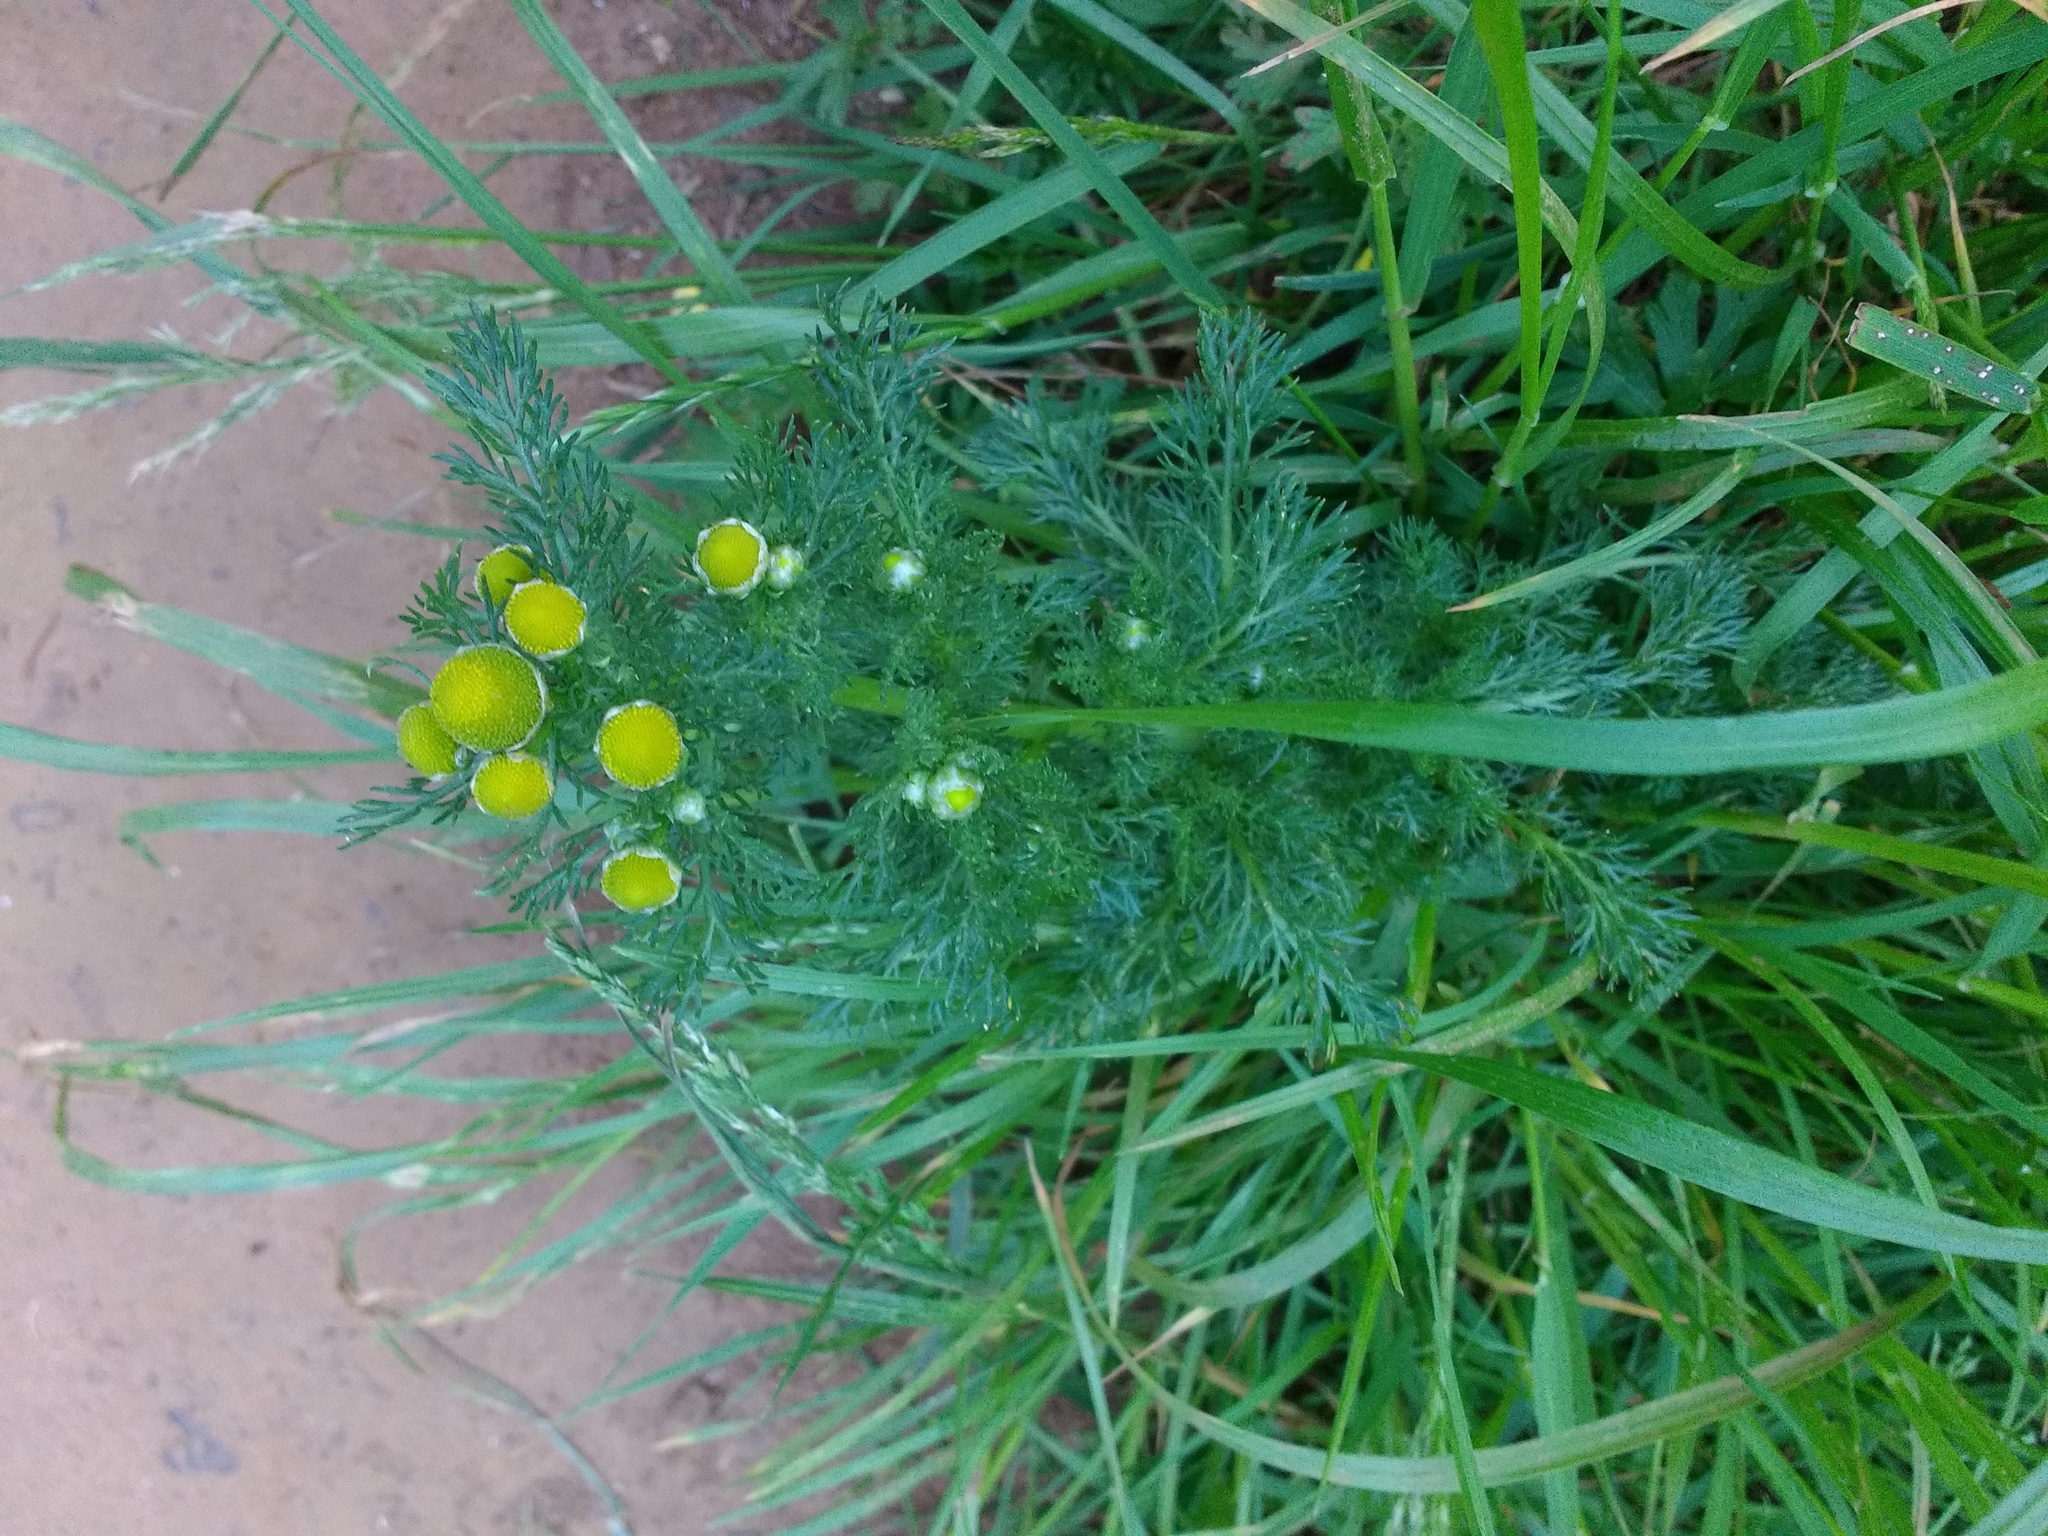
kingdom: Plantae
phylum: Tracheophyta
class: Magnoliopsida
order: Asterales
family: Asteraceae
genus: Matricaria
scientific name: Matricaria discoidea
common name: Disc mayweed
